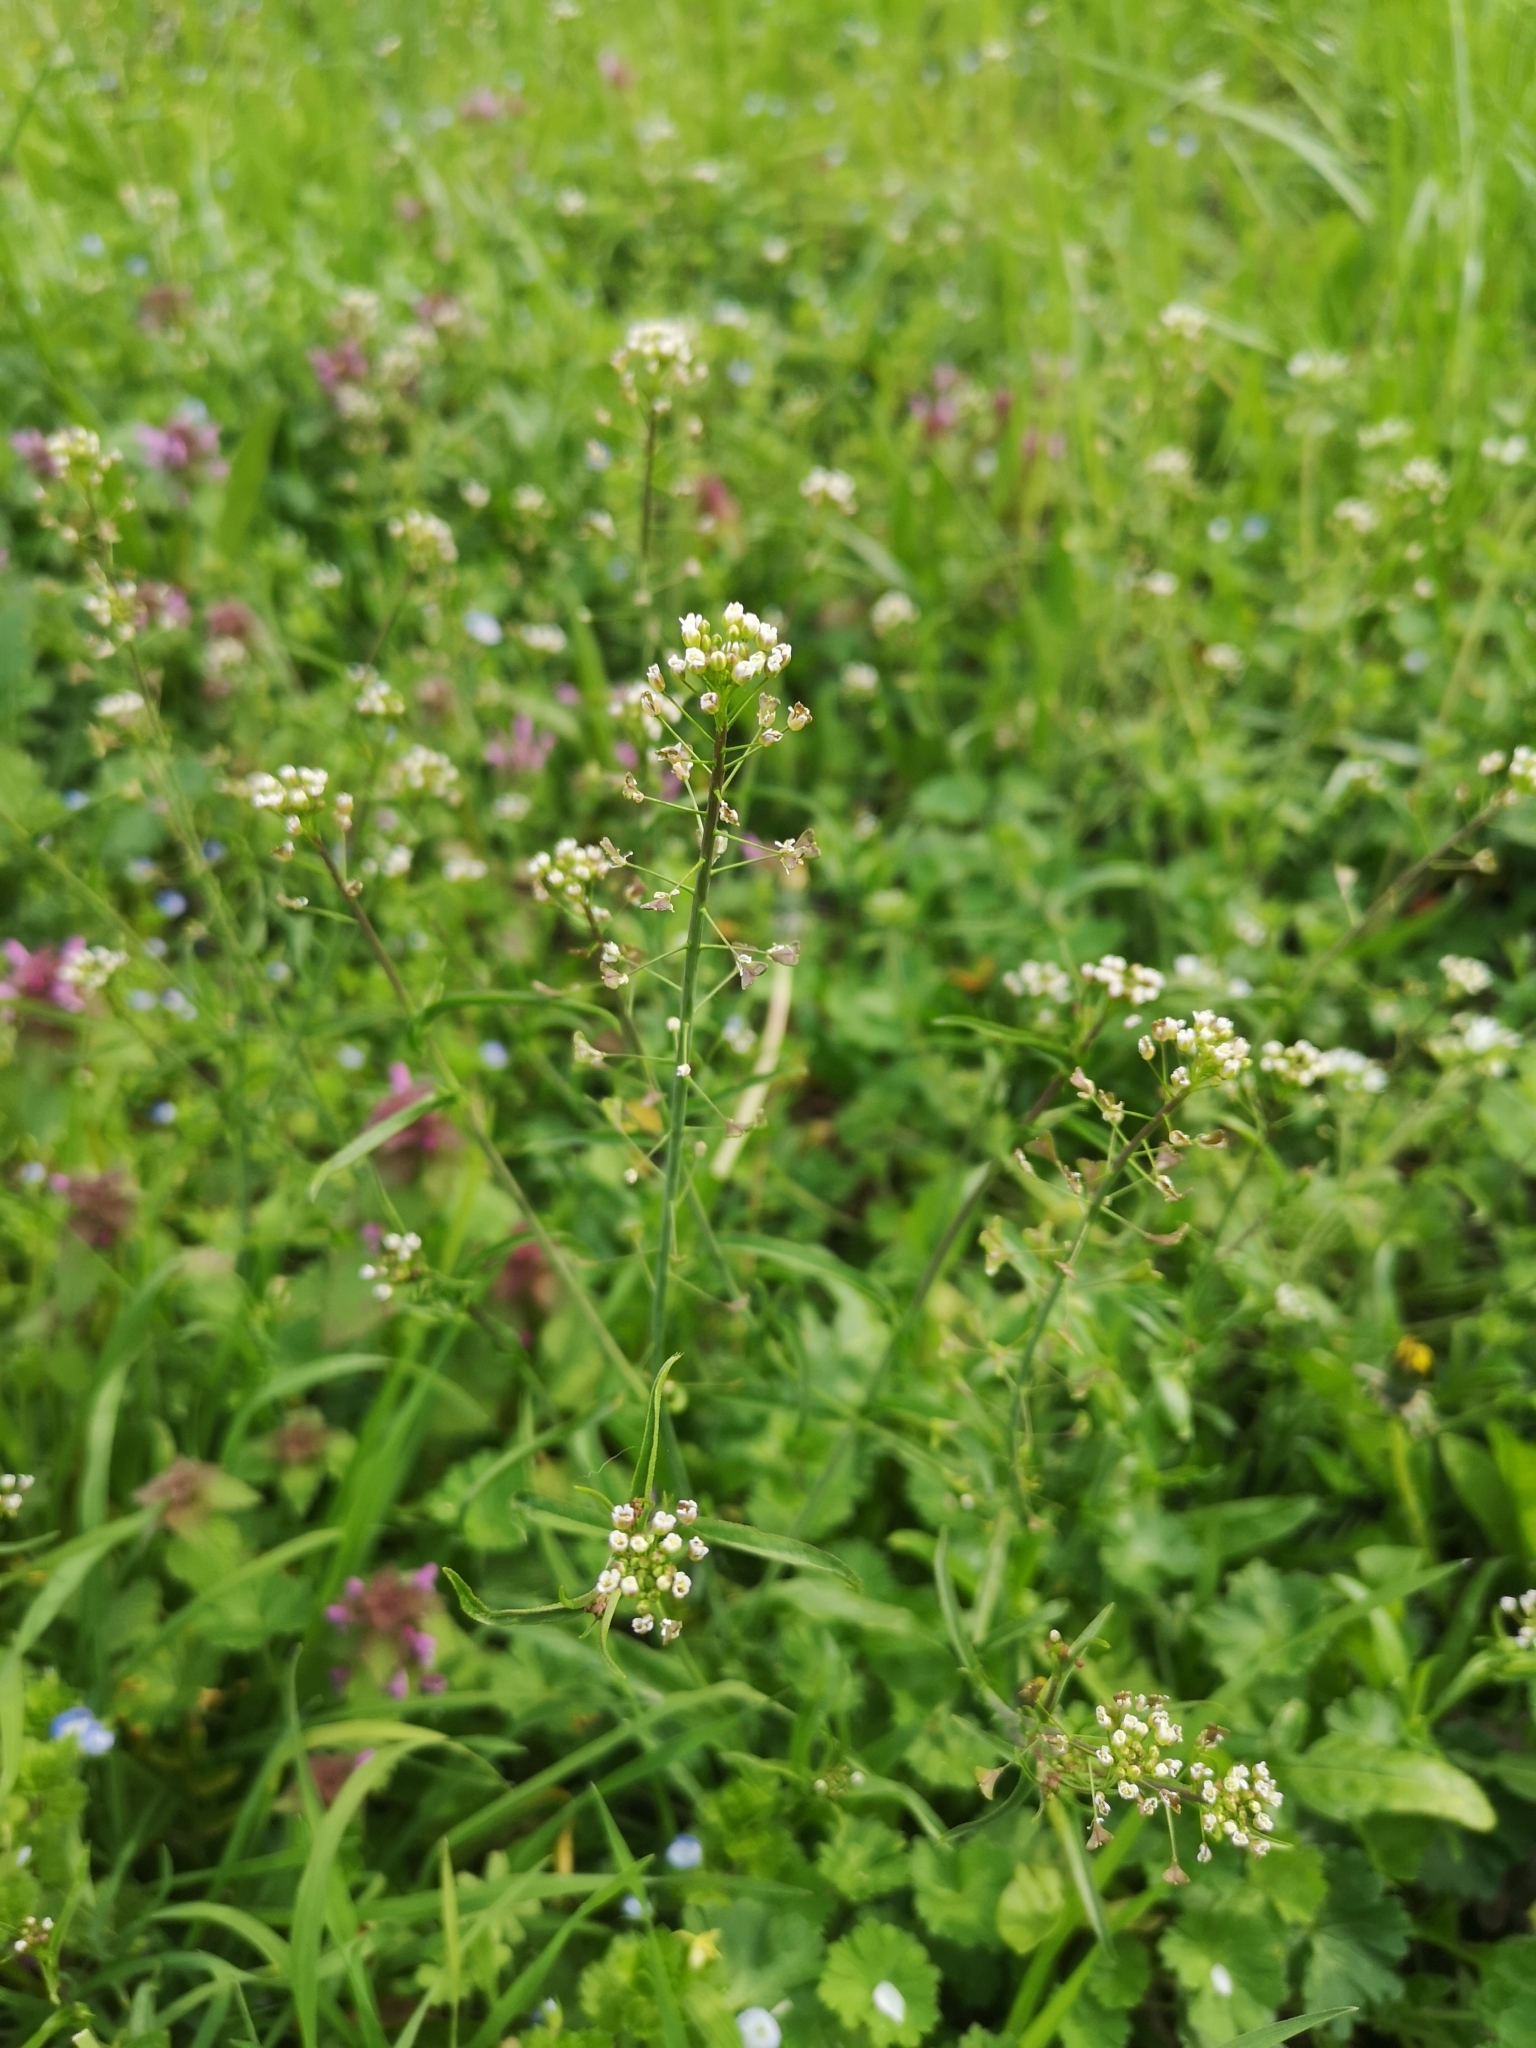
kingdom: Plantae
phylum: Tracheophyta
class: Magnoliopsida
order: Brassicales
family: Brassicaceae
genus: Capsella
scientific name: Capsella bursa-pastoris
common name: Shepherd's purse
